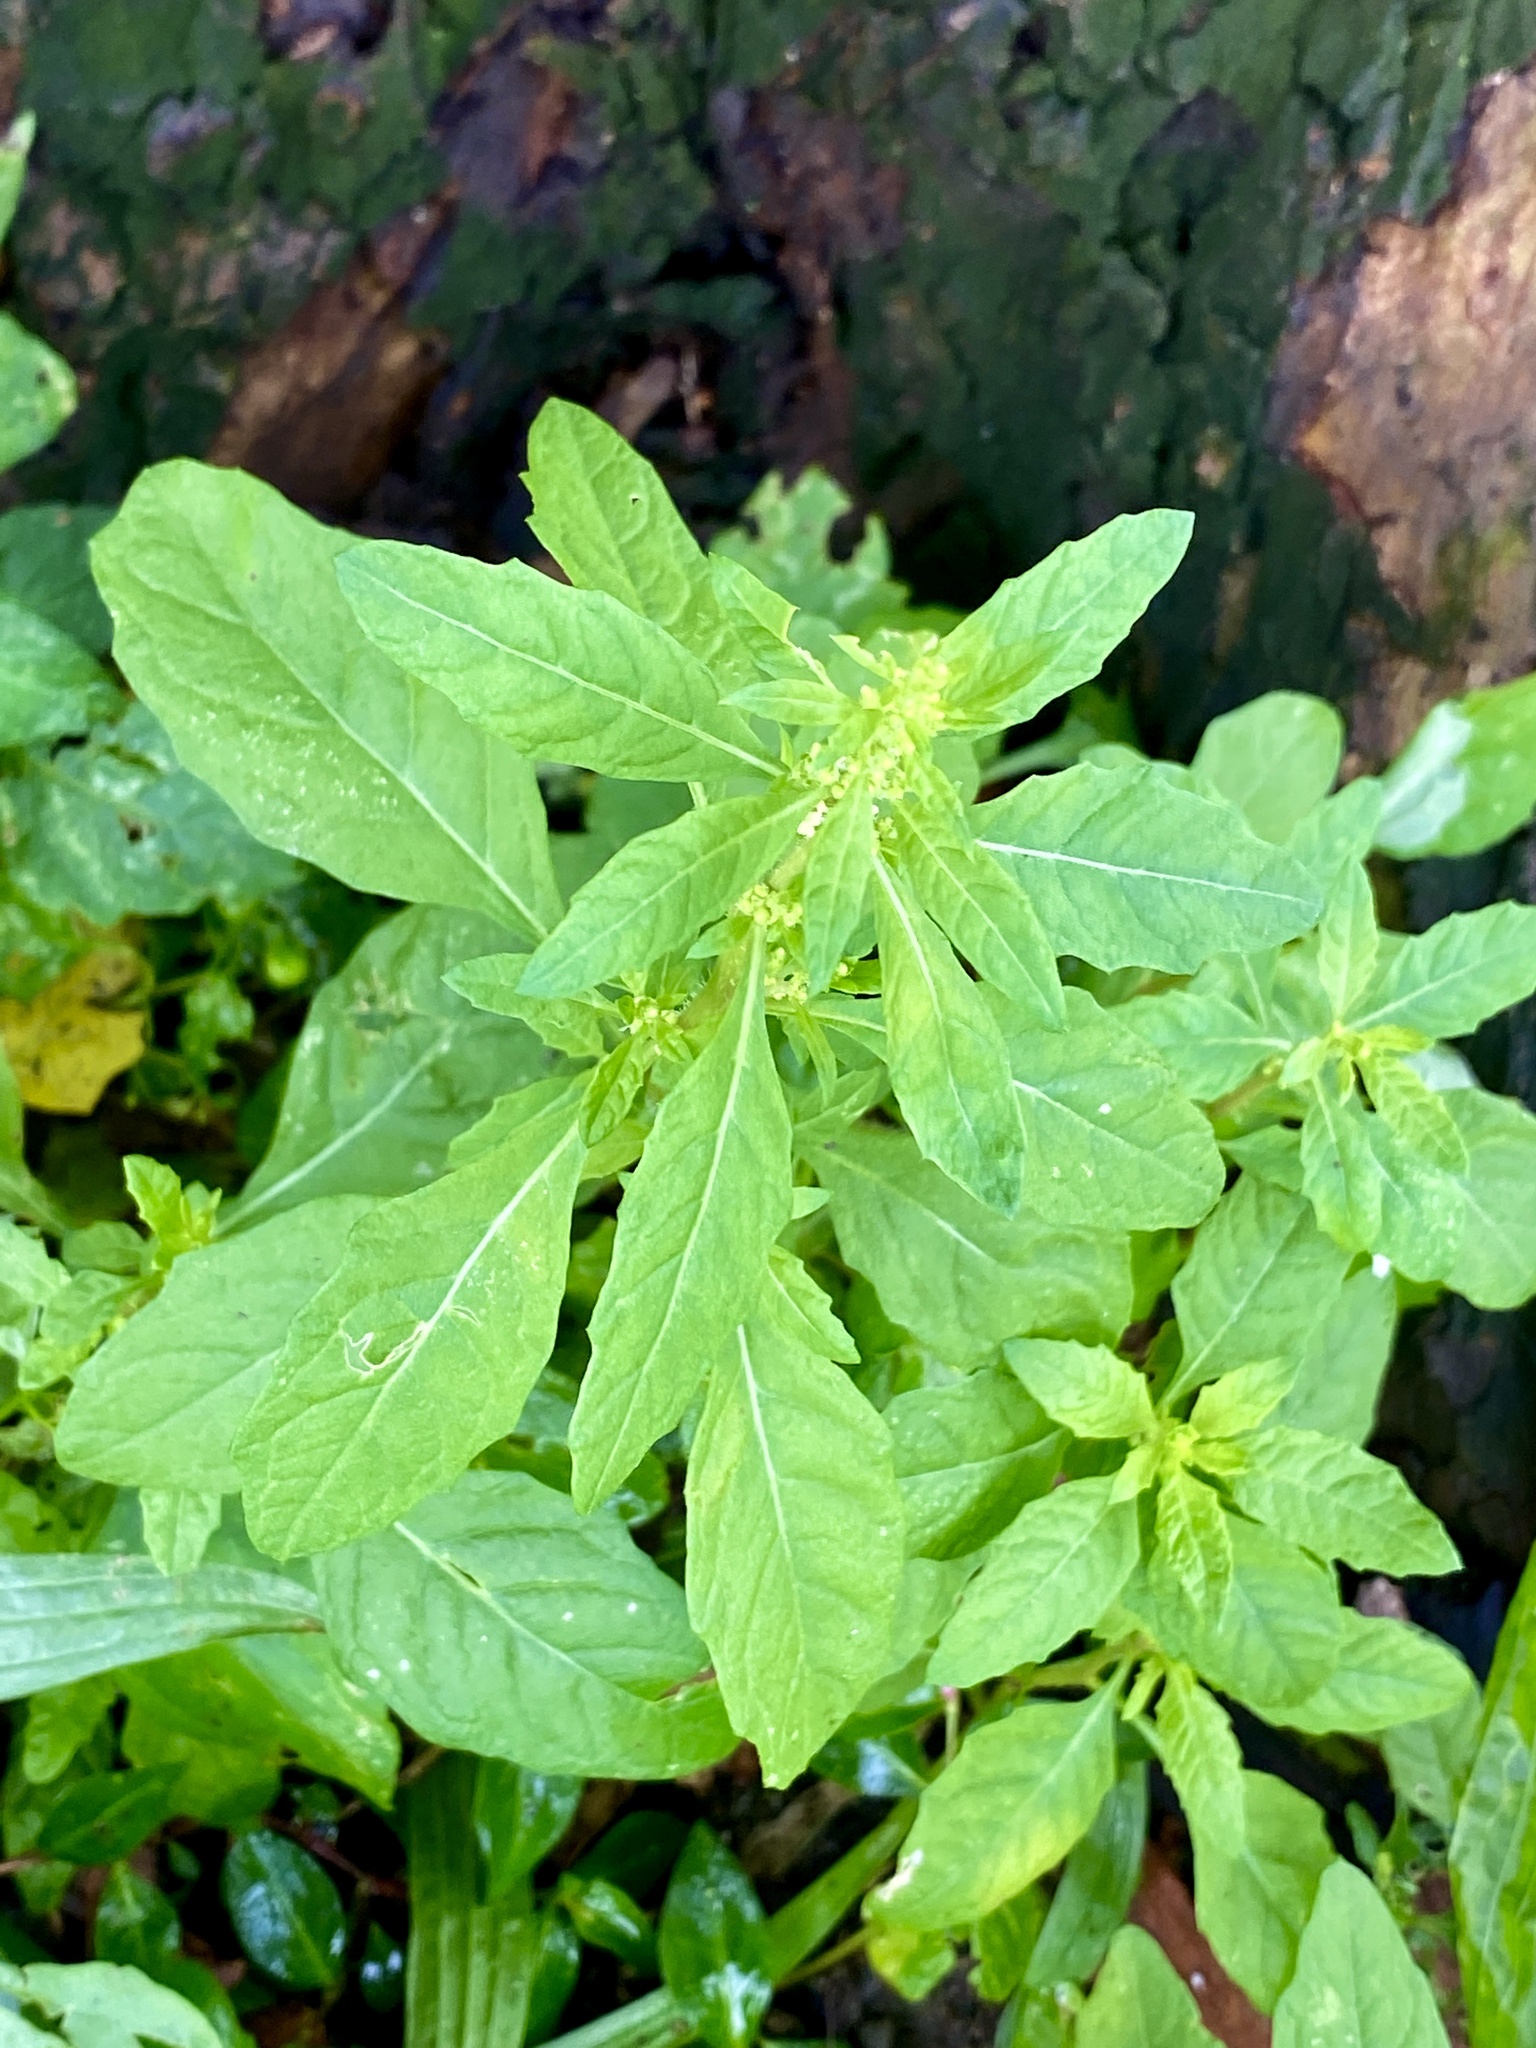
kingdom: Plantae
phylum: Tracheophyta
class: Magnoliopsida
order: Caryophyllales
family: Amaranthaceae
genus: Dysphania
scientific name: Dysphania ambrosioides
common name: Wormseed
